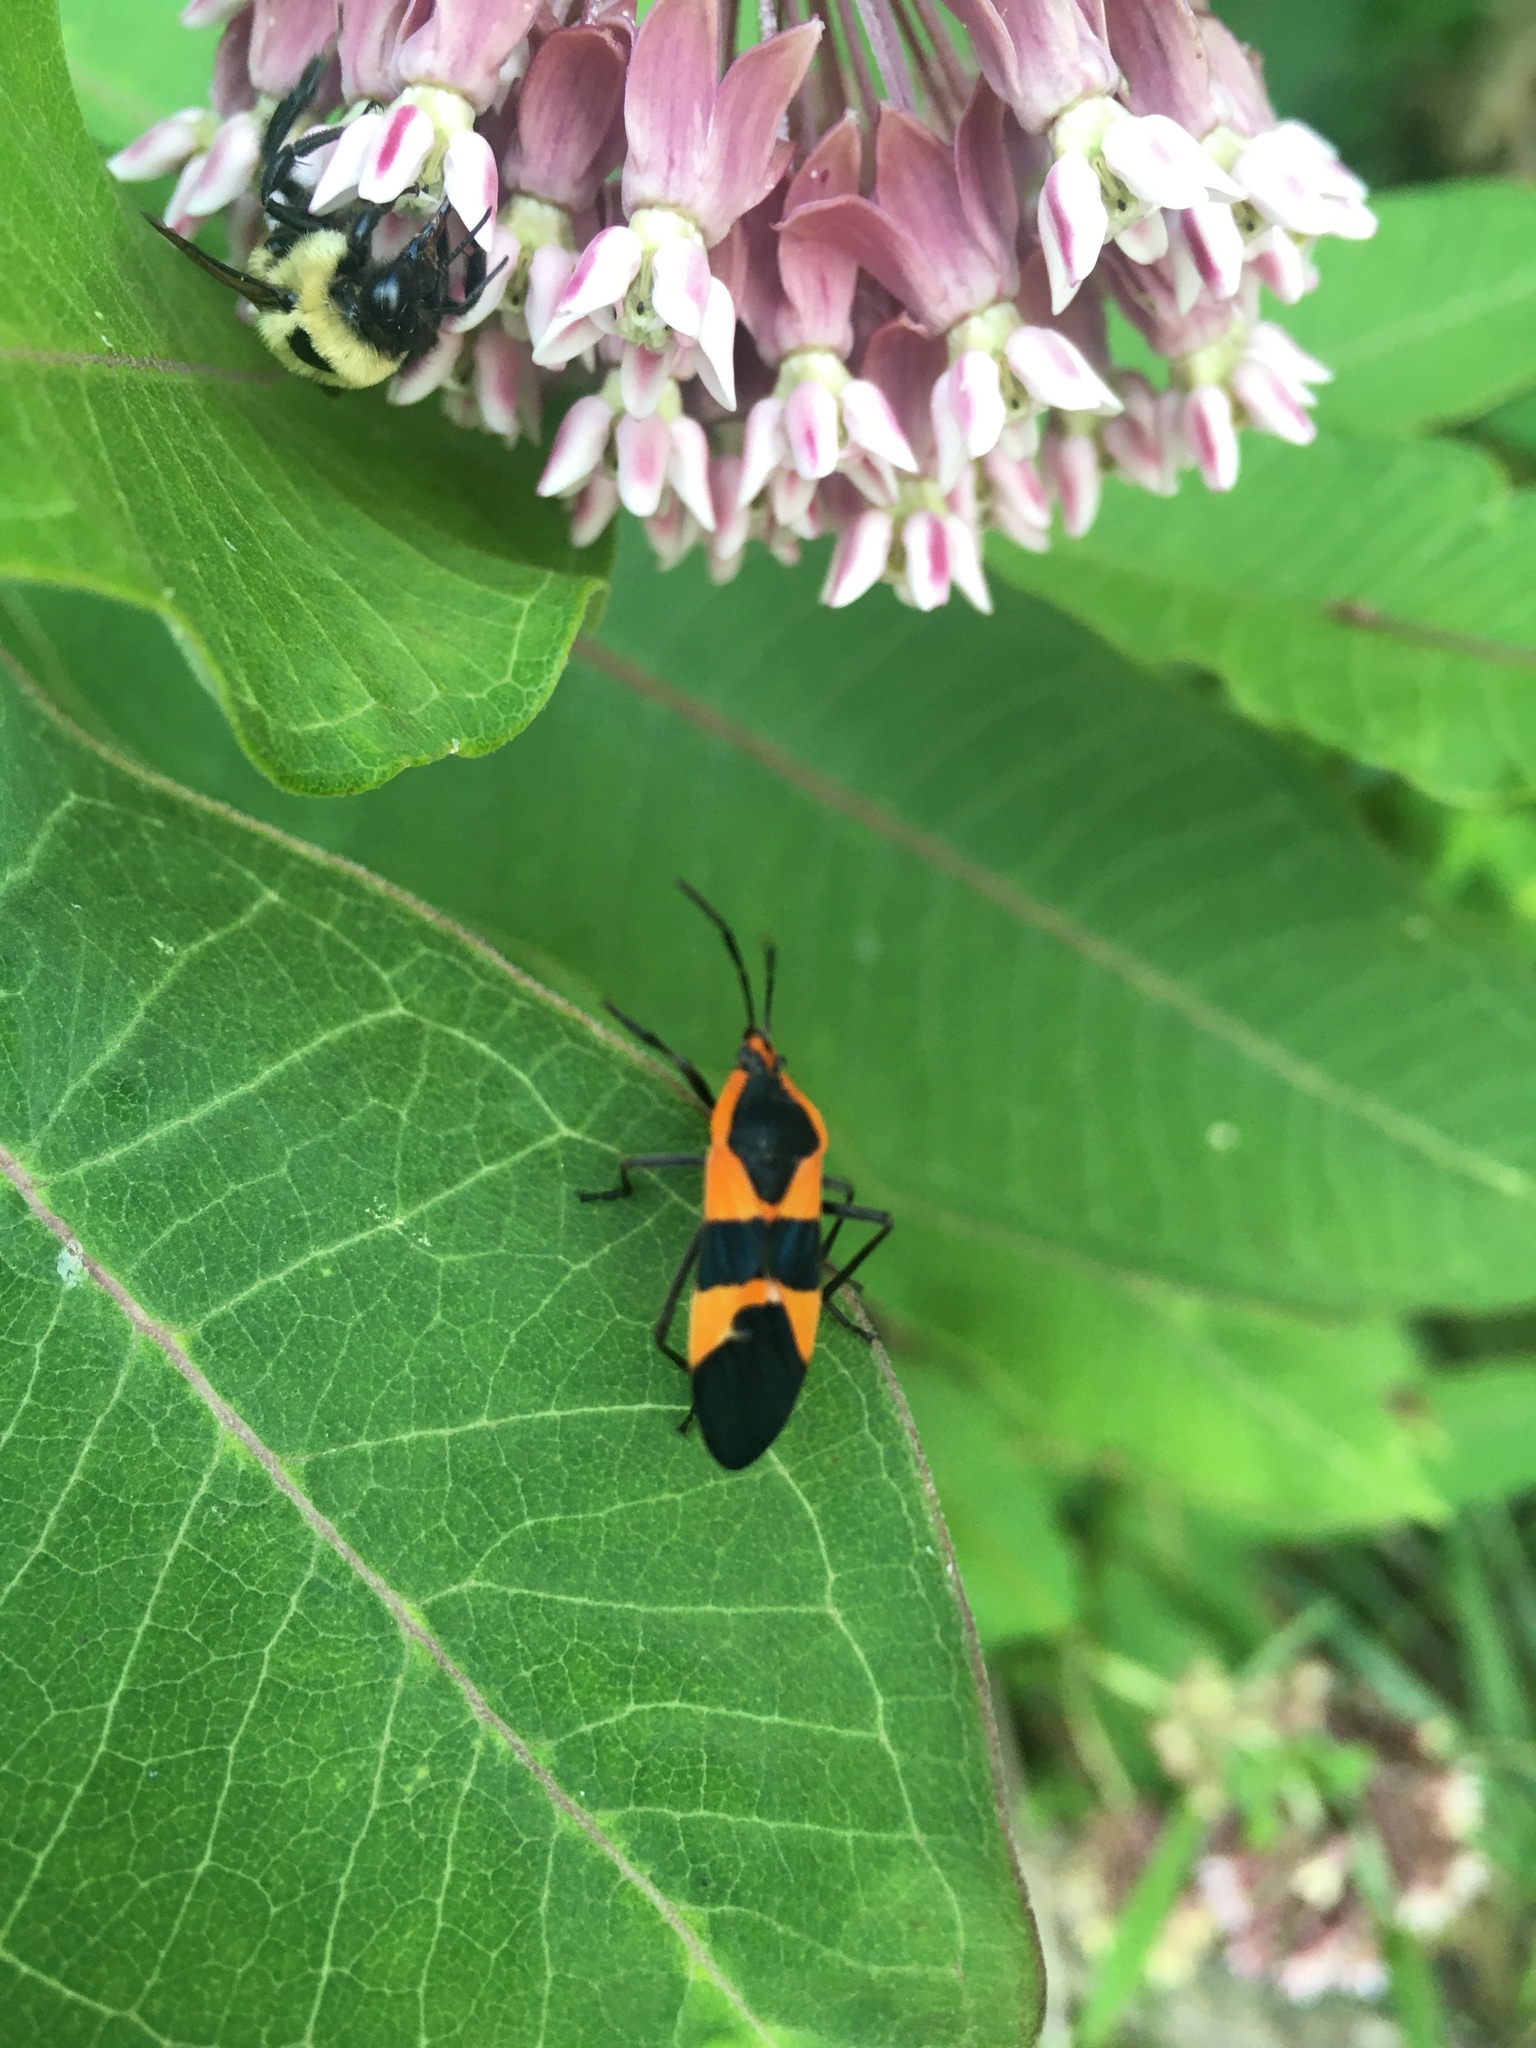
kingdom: Animalia
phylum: Arthropoda
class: Insecta
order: Hemiptera
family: Lygaeidae
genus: Oncopeltus
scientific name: Oncopeltus fasciatus
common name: Large milkweed bug
